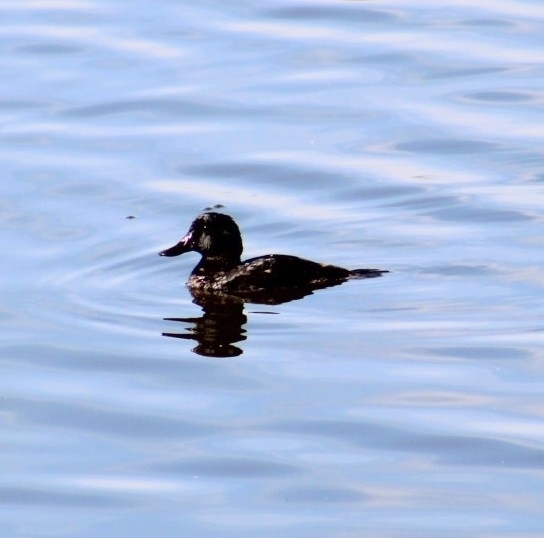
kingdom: Animalia
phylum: Chordata
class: Aves
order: Anseriformes
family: Anatidae
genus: Oxyura
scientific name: Oxyura jamaicensis
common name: Ruddy duck
